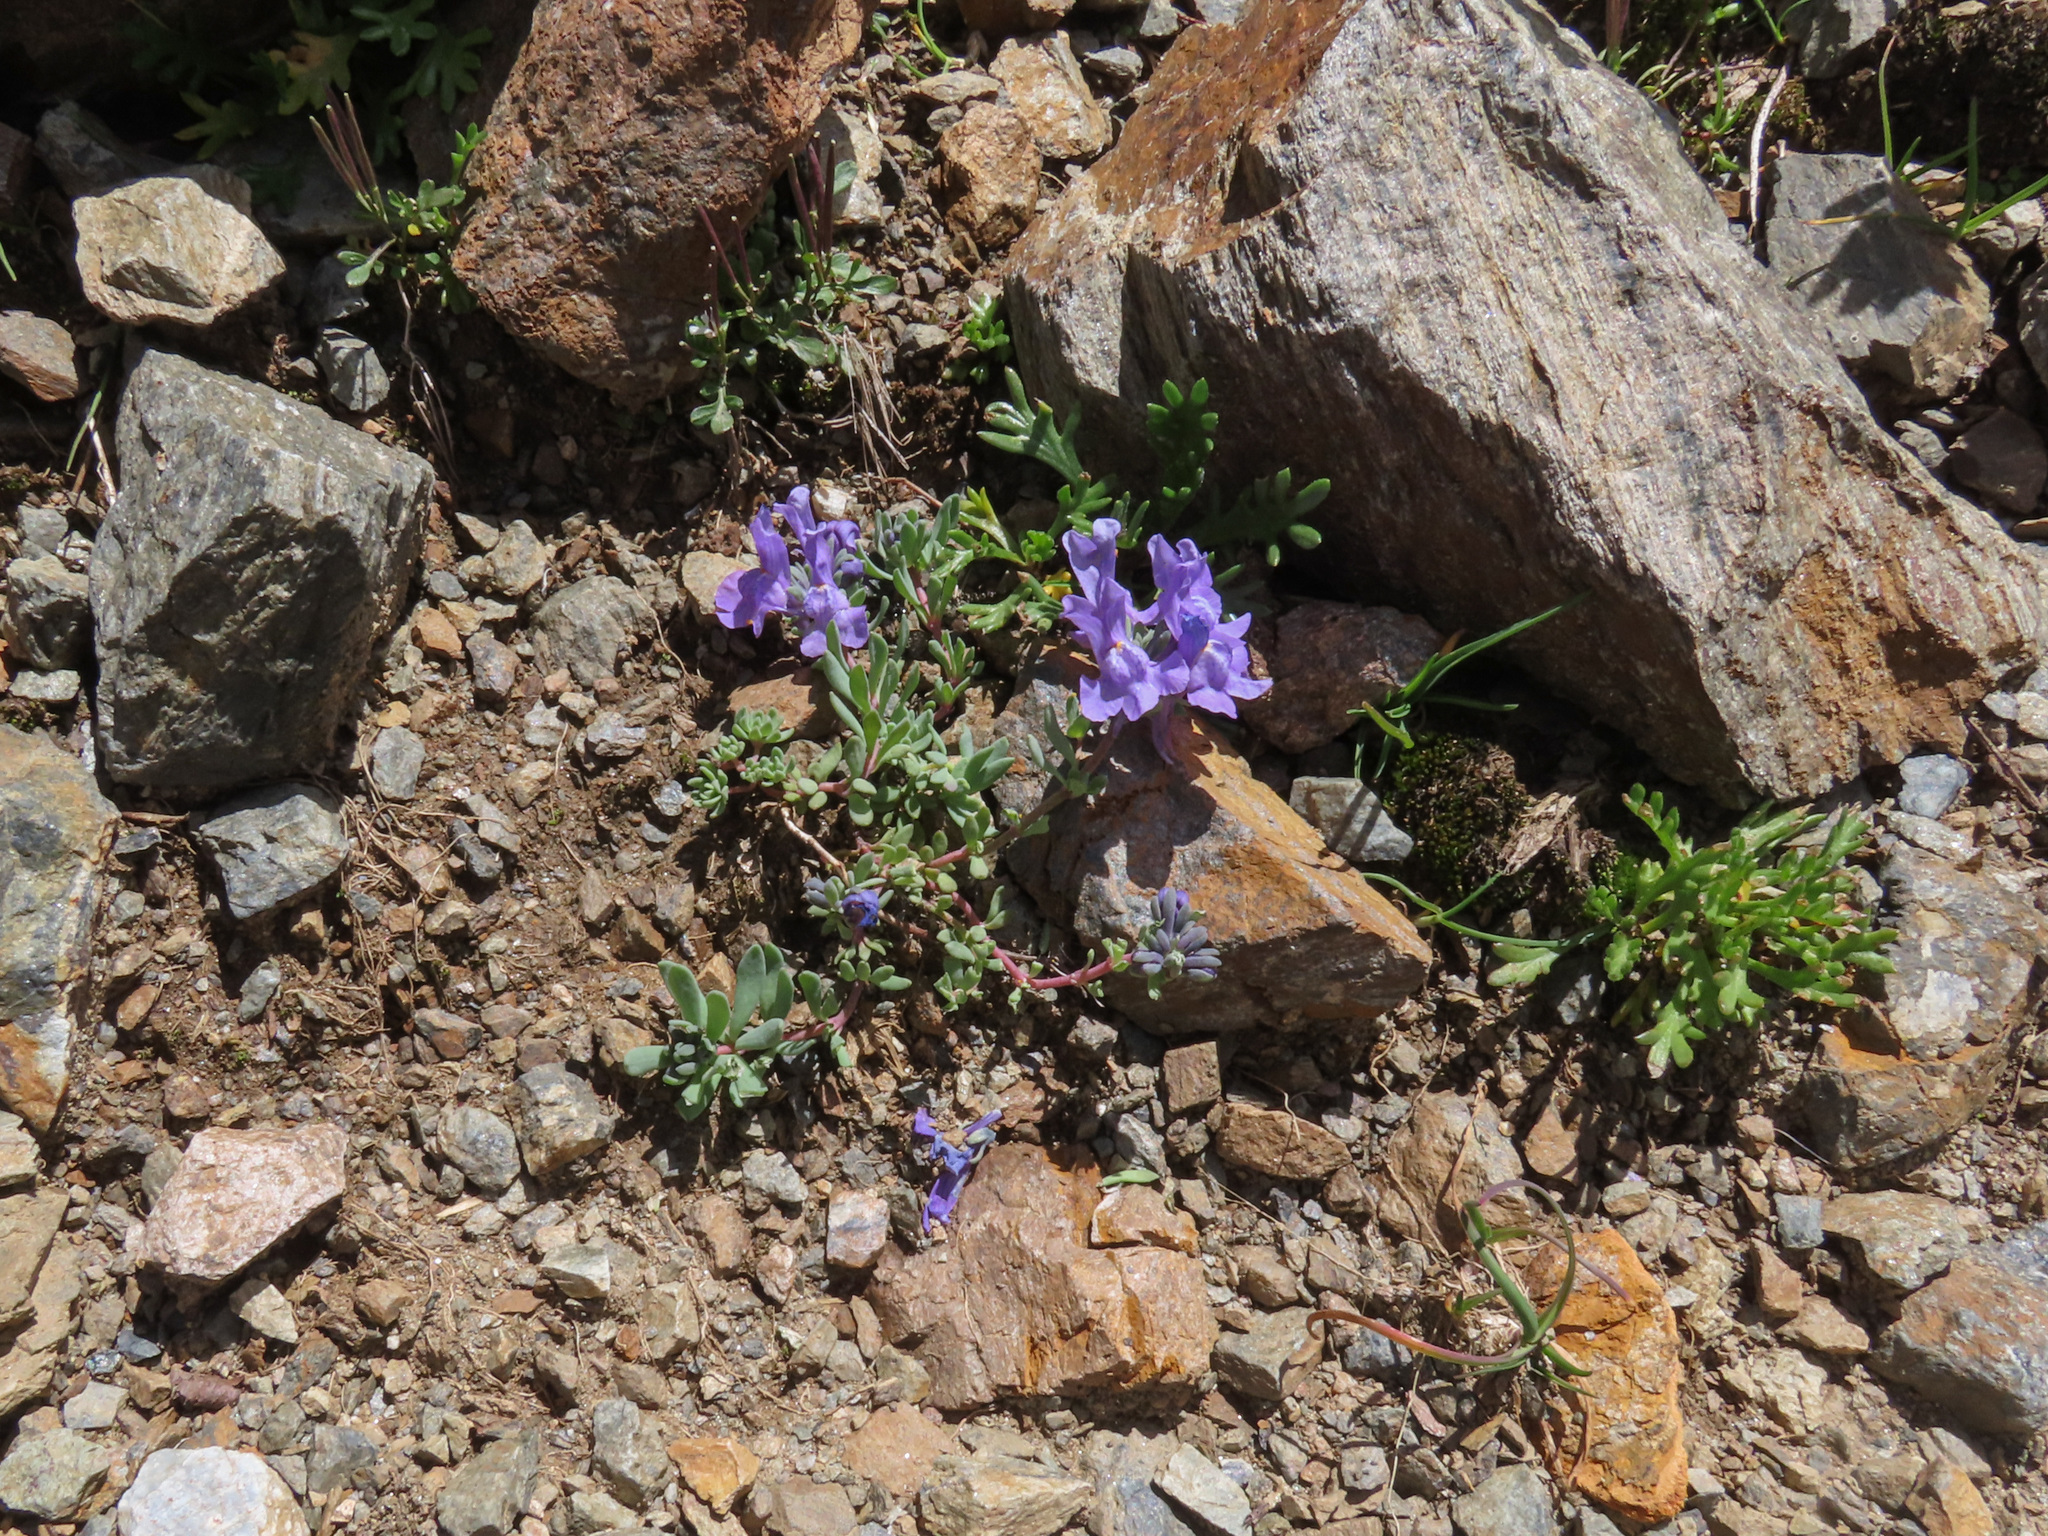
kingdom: Plantae
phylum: Tracheophyta
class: Magnoliopsida
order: Lamiales
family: Plantaginaceae
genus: Linaria
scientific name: Linaria alpina
